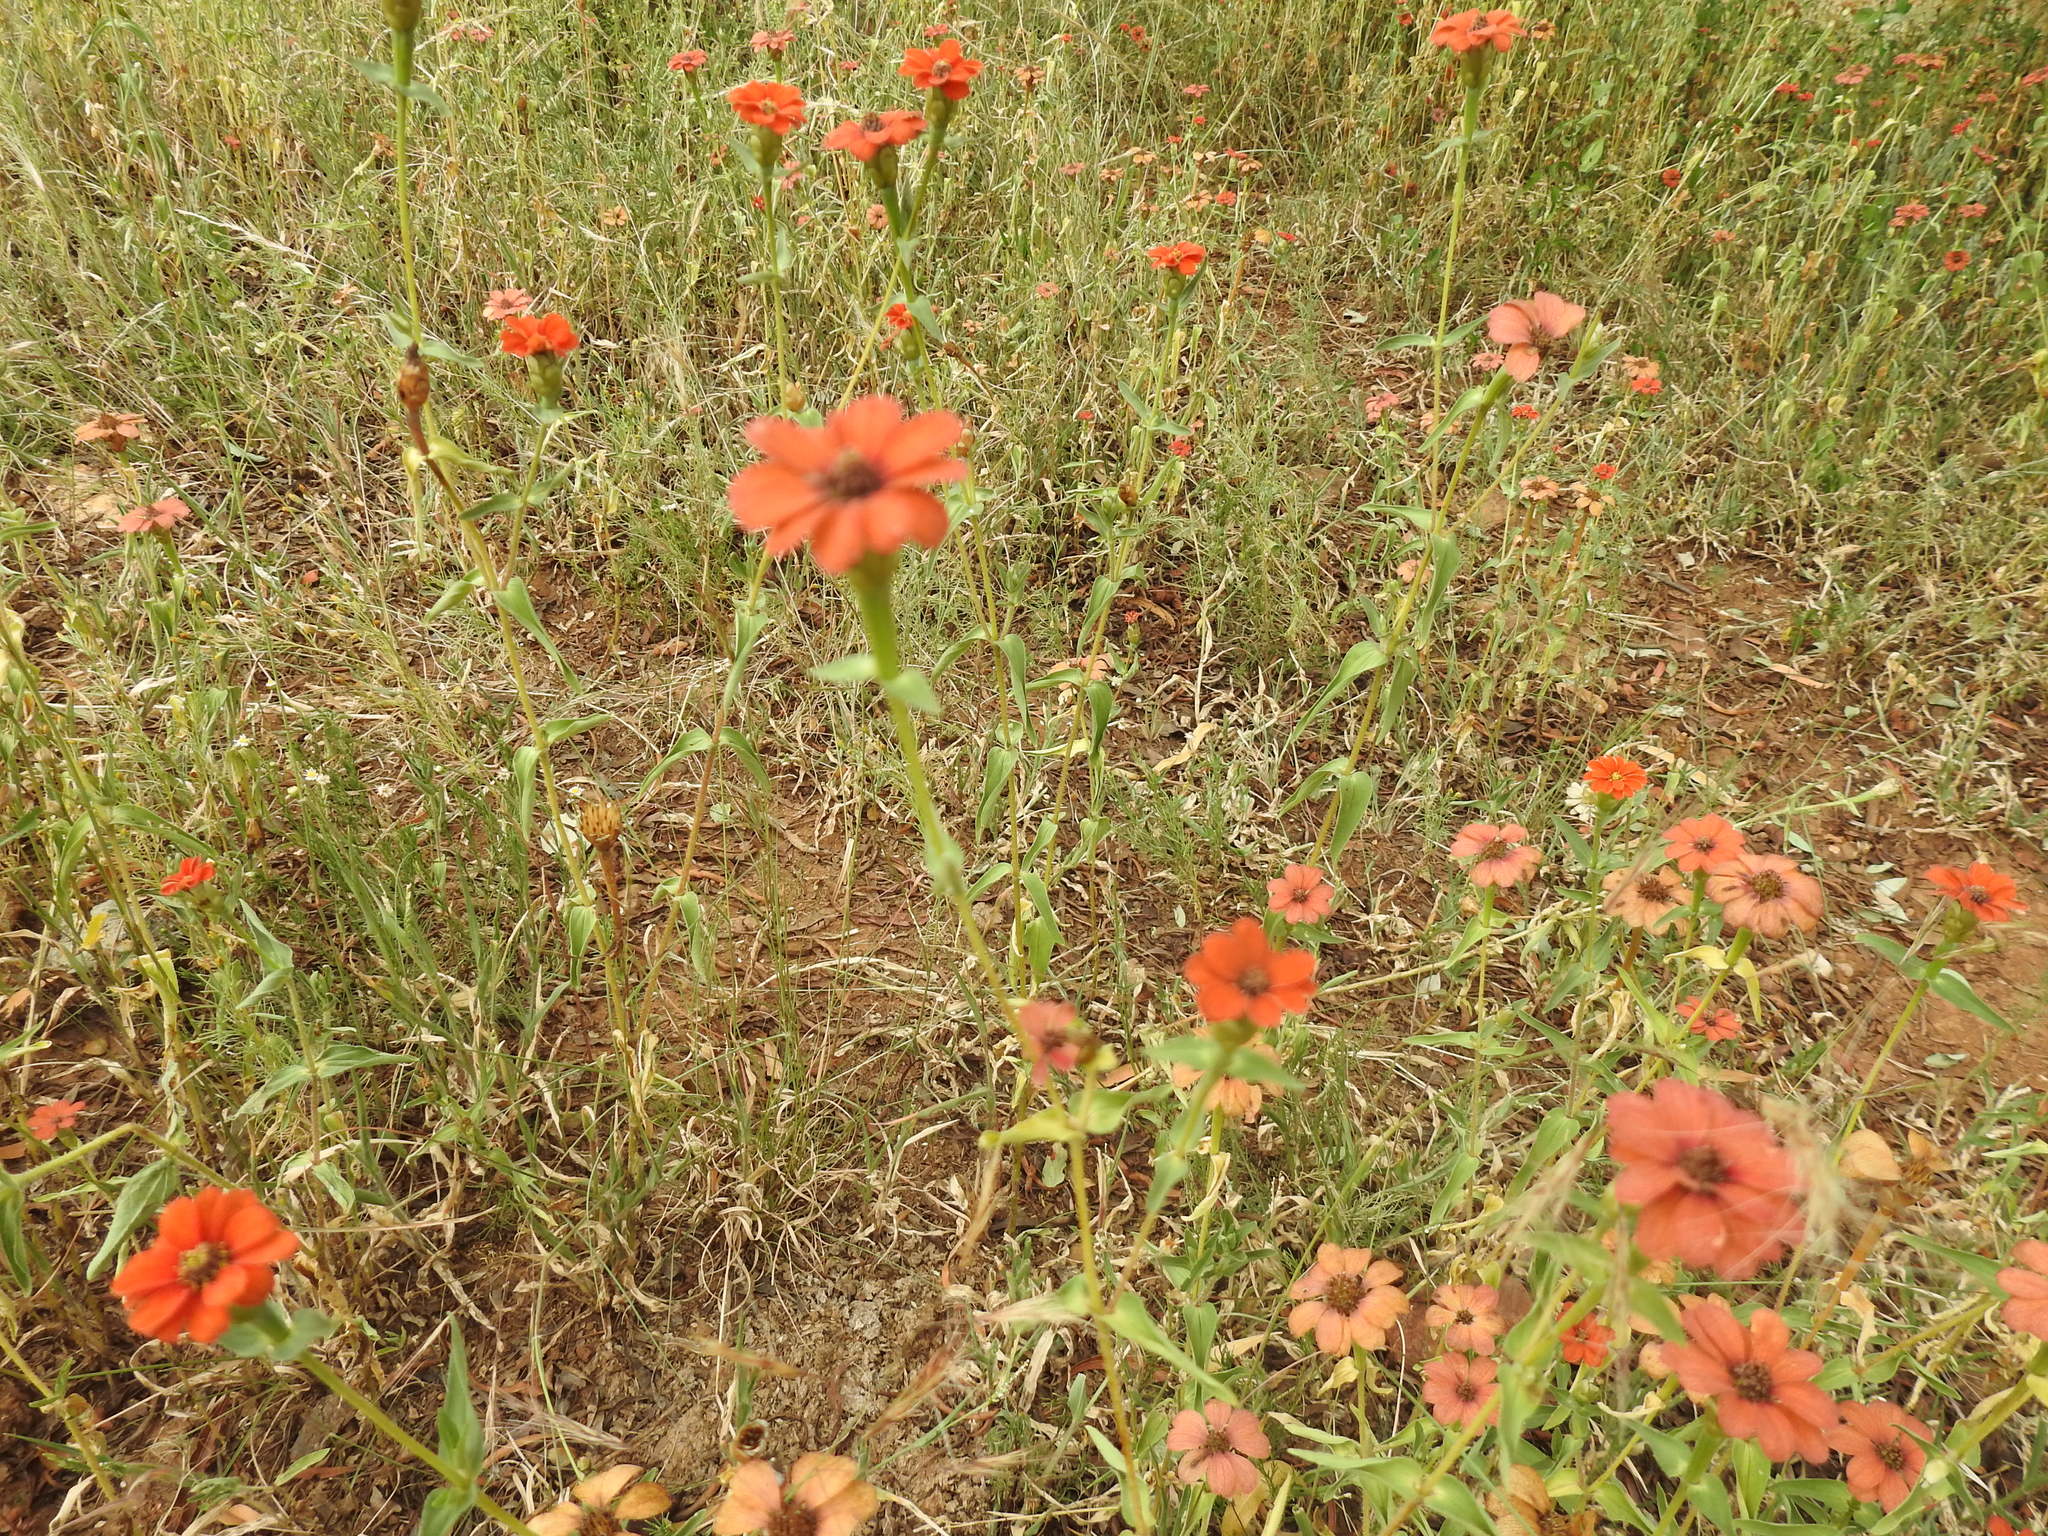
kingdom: Plantae
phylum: Tracheophyta
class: Magnoliopsida
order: Asterales
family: Asteraceae
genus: Zinnia
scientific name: Zinnia peruviana
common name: Peruvian zinnia
